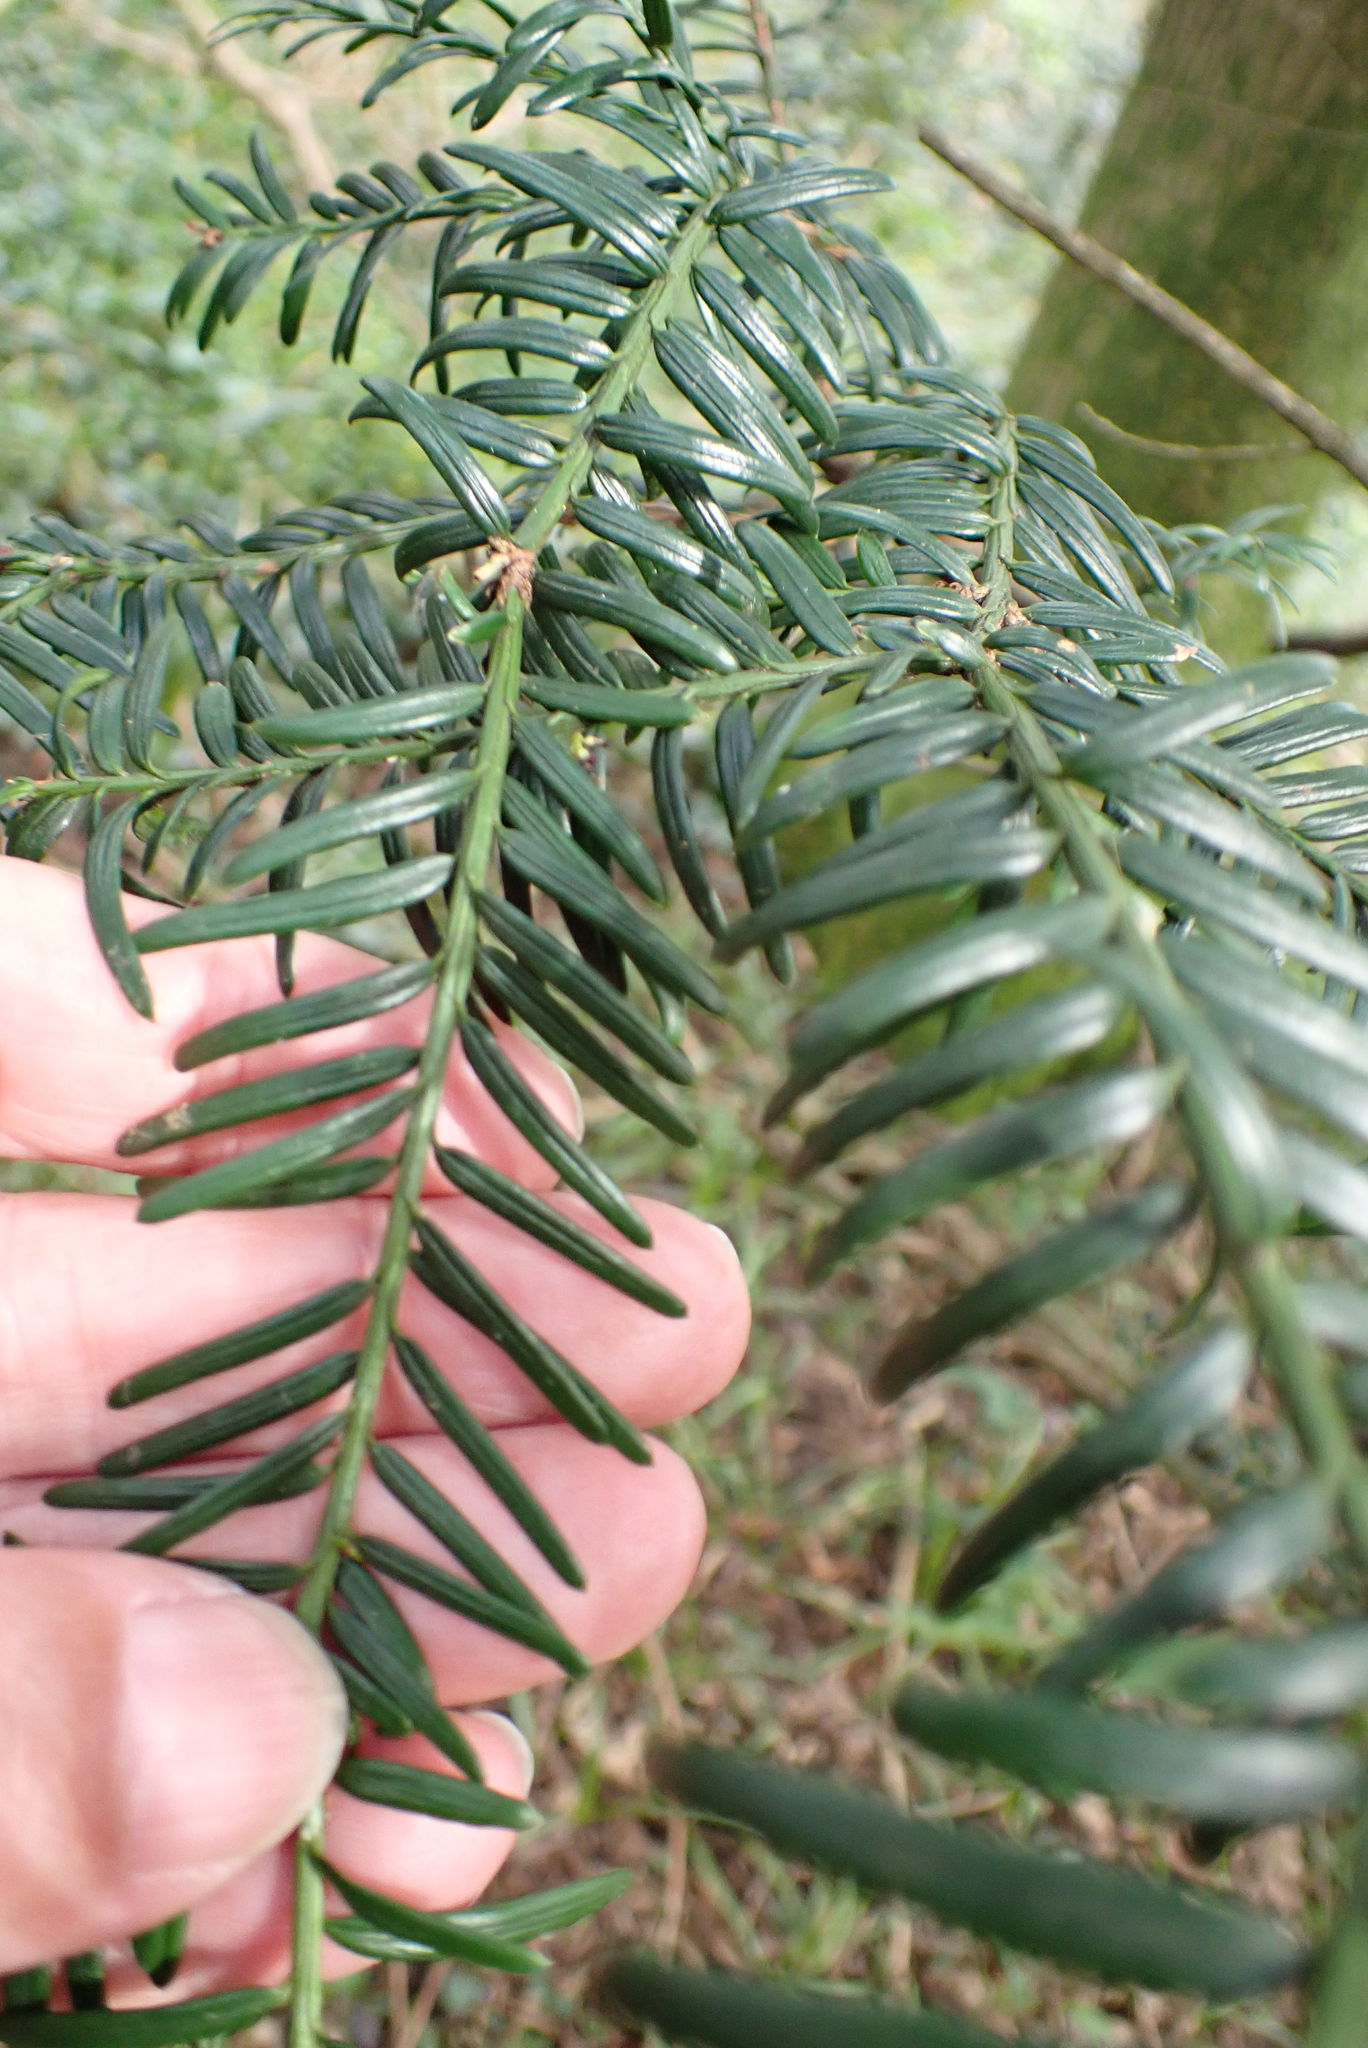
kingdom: Plantae
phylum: Tracheophyta
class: Pinopsida
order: Pinales
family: Taxaceae
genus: Taxus
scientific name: Taxus baccata
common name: Yew
